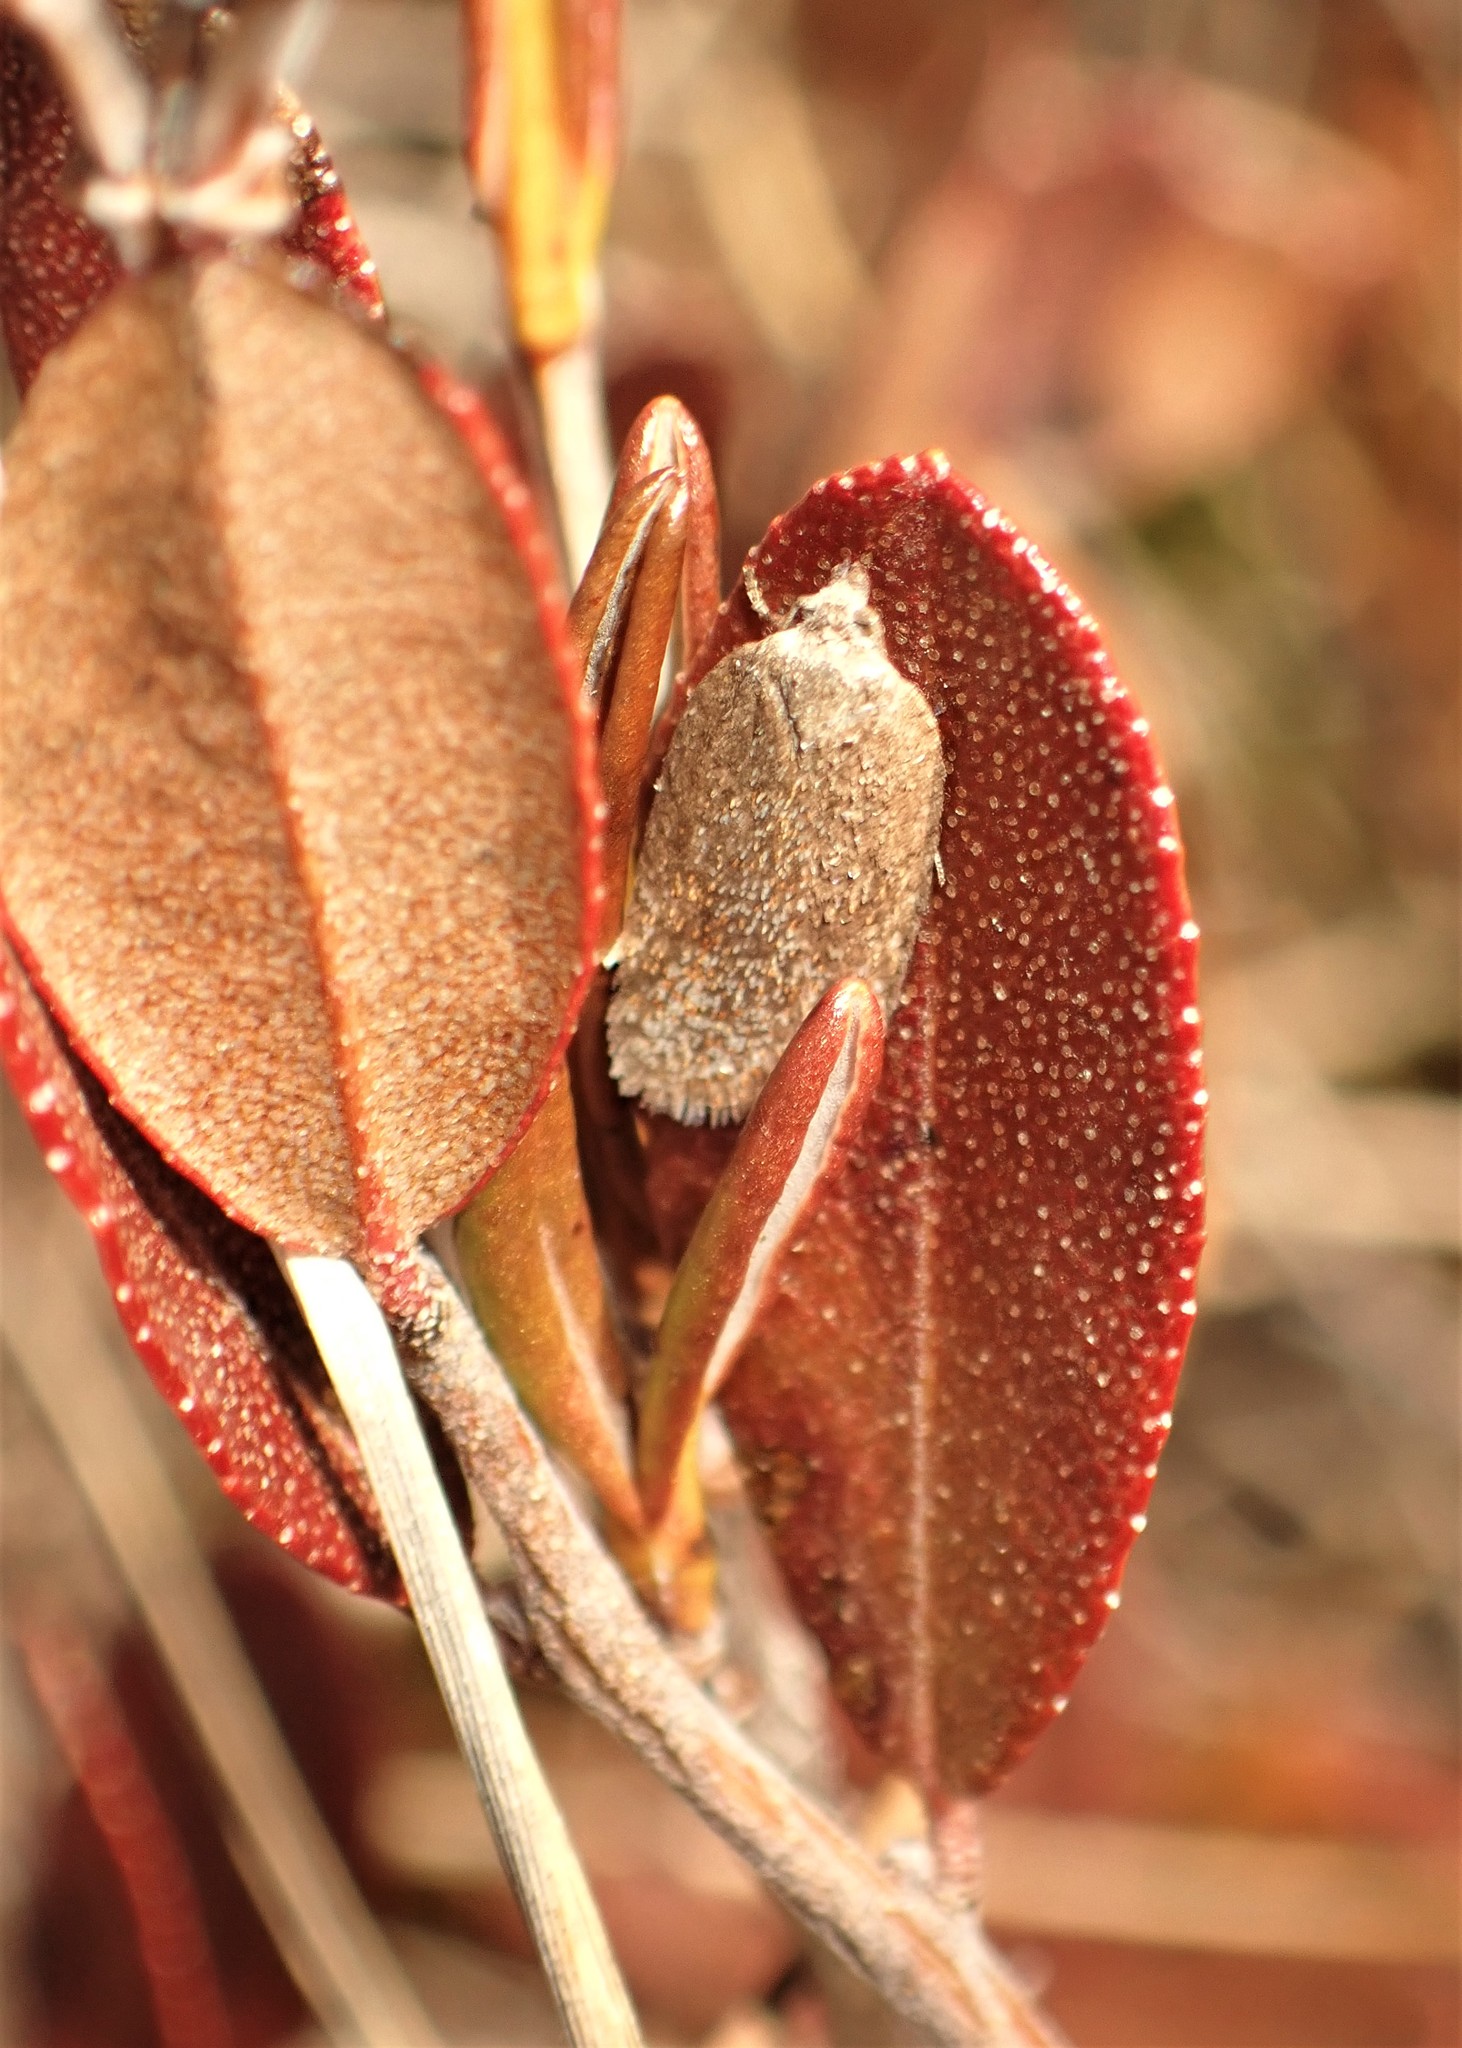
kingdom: Animalia
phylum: Arthropoda
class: Insecta
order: Lepidoptera
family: Tortricidae
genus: Acleris
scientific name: Acleris oxycoccana
